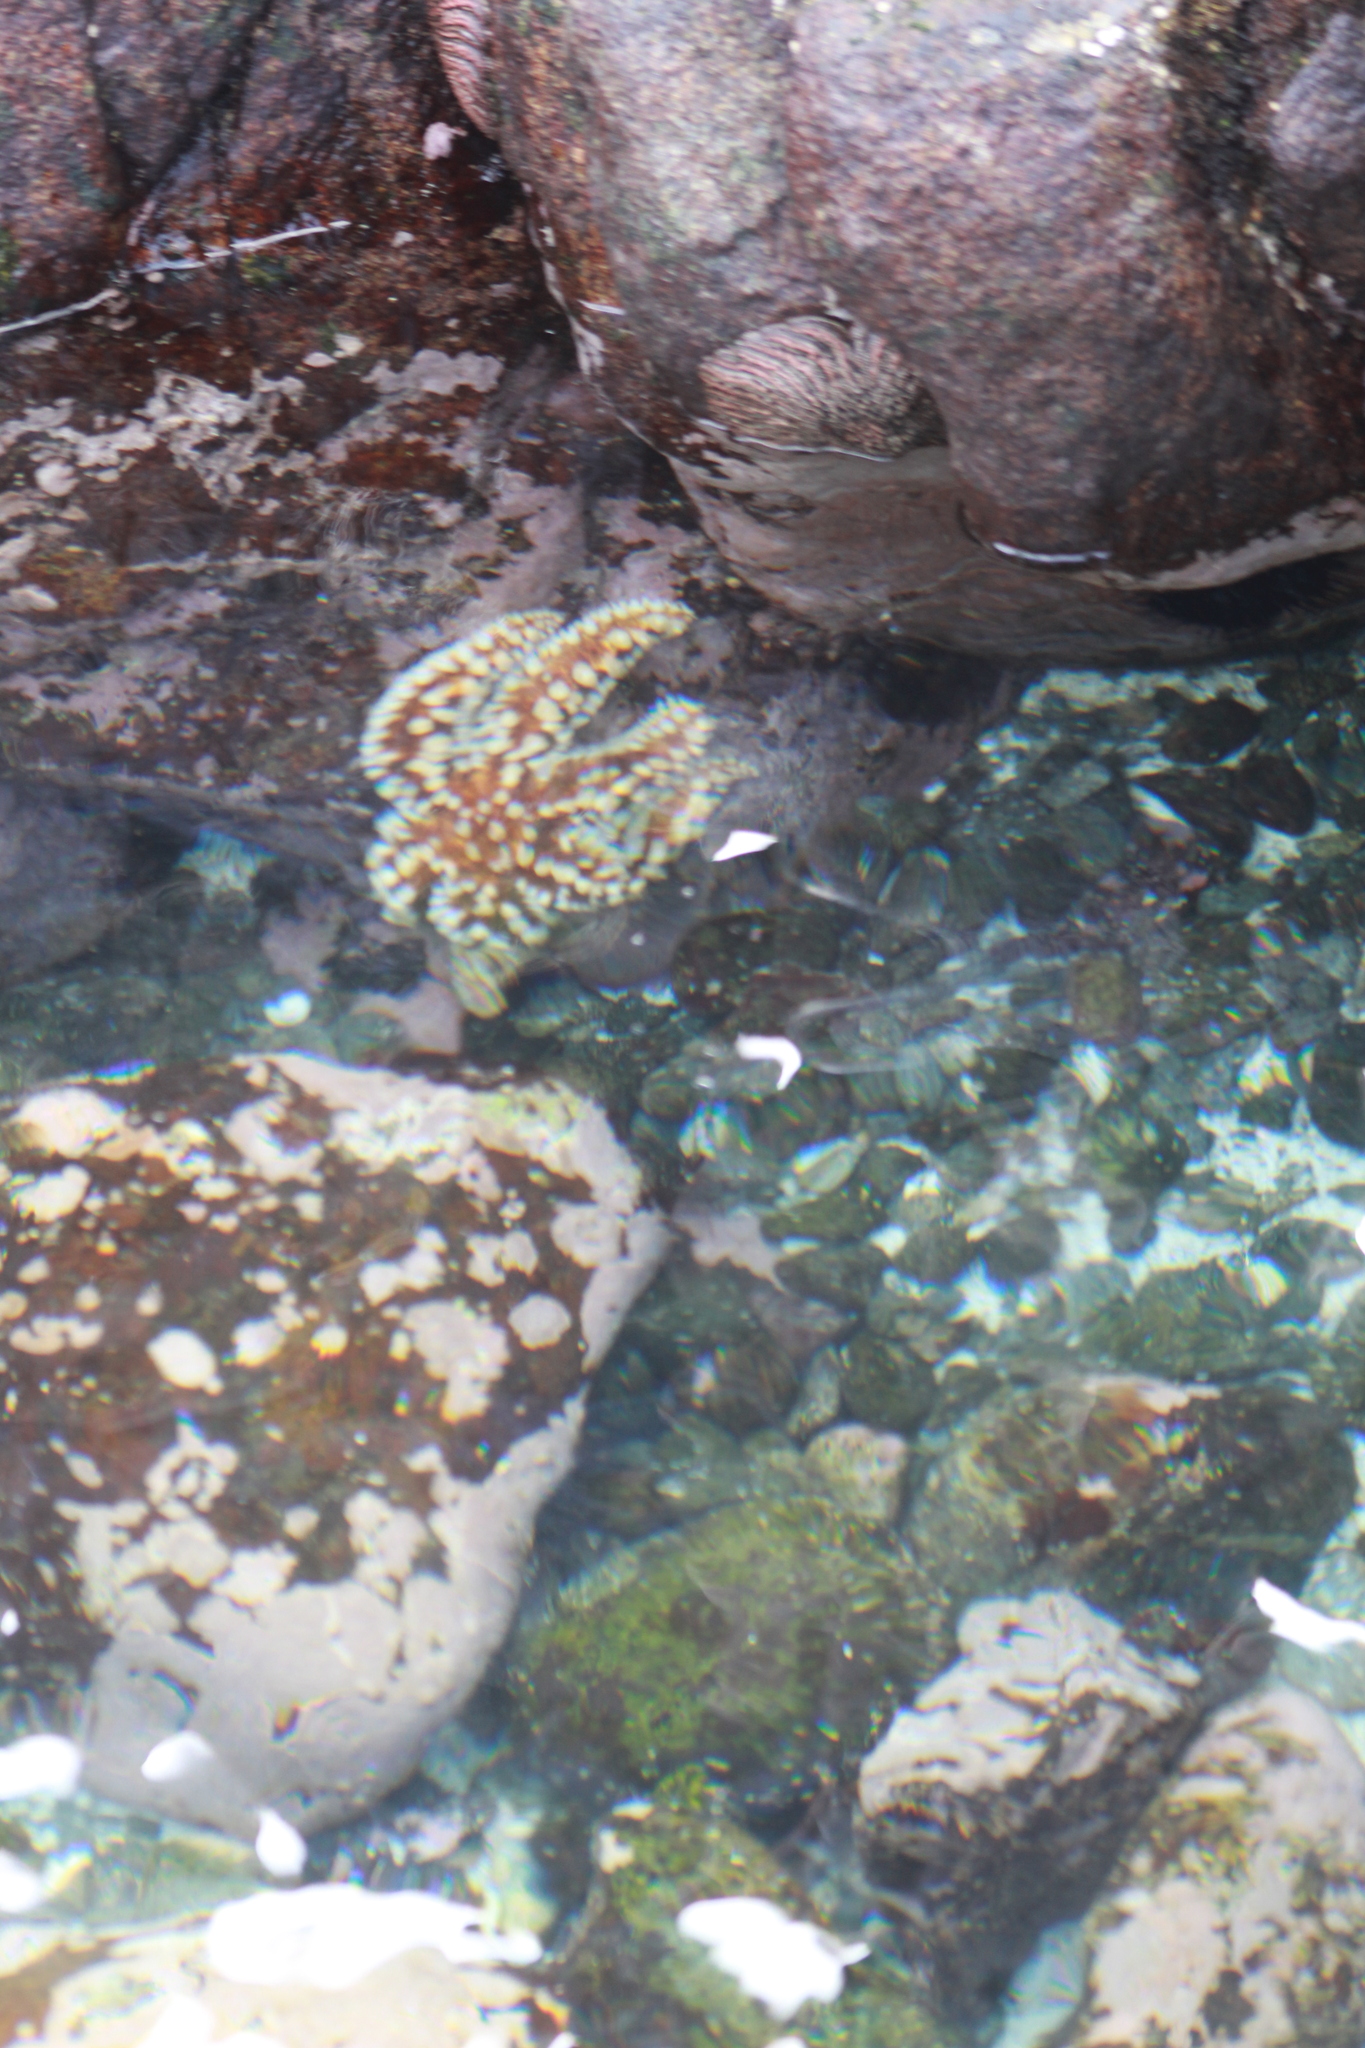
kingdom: Animalia
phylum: Echinodermata
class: Asteroidea
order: Forcipulatida
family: Asteriidae
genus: Meyenaster
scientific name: Meyenaster gelatinosus
